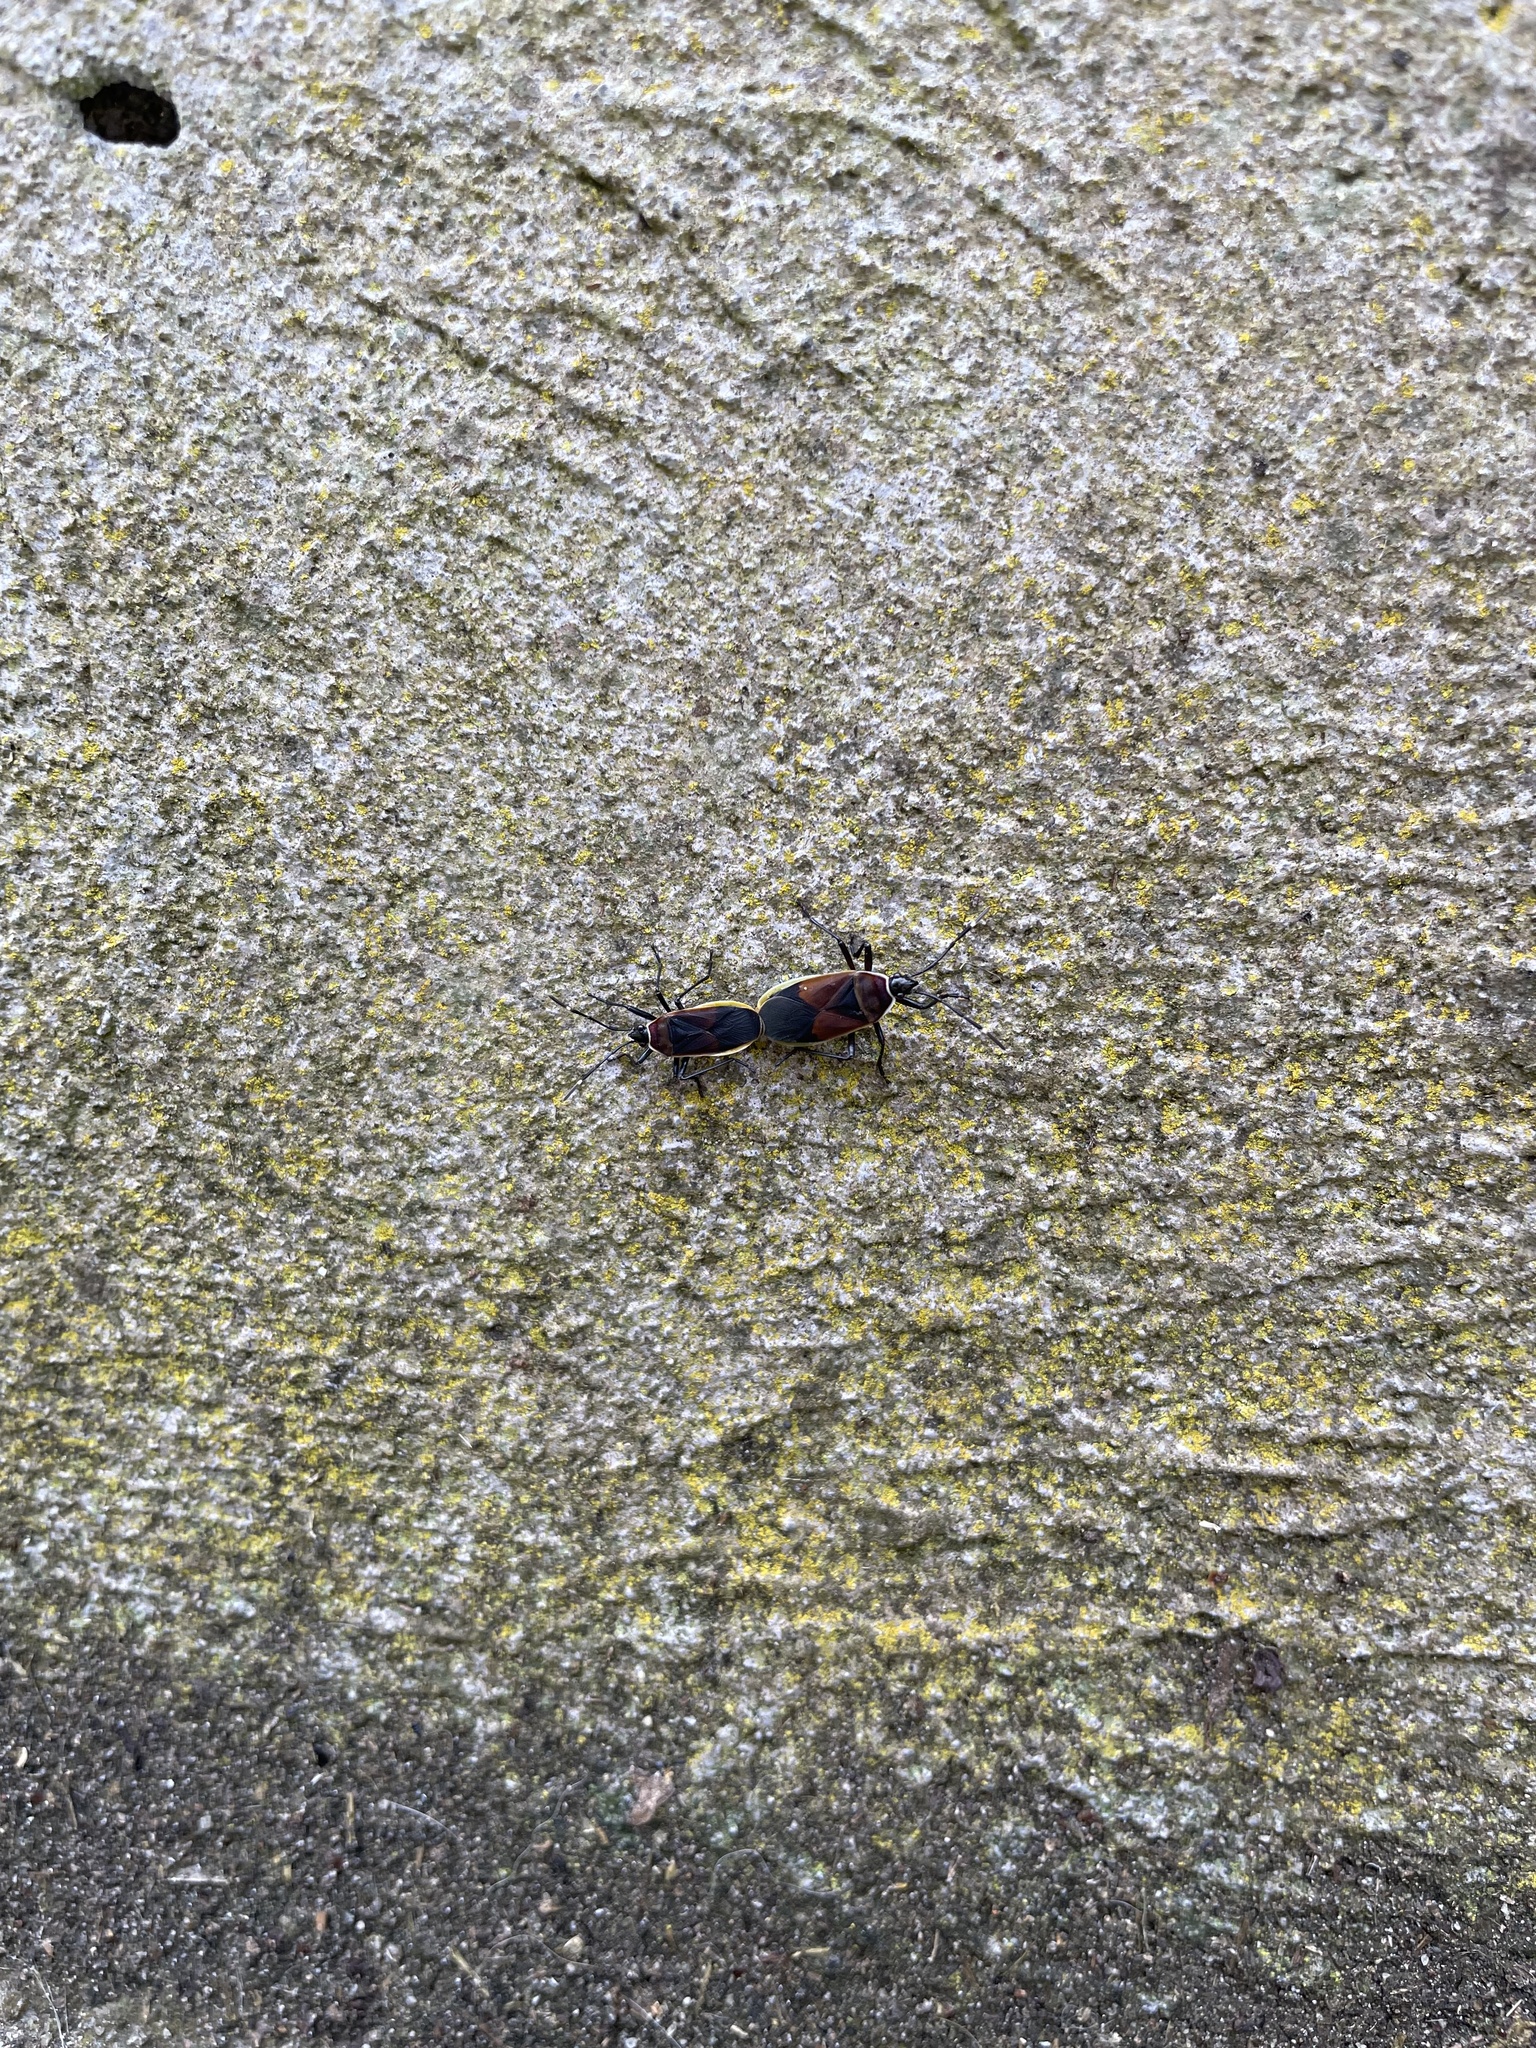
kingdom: Animalia
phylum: Arthropoda
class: Insecta
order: Hemiptera
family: Pyrrhocoridae
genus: Dindymus
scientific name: Dindymus
